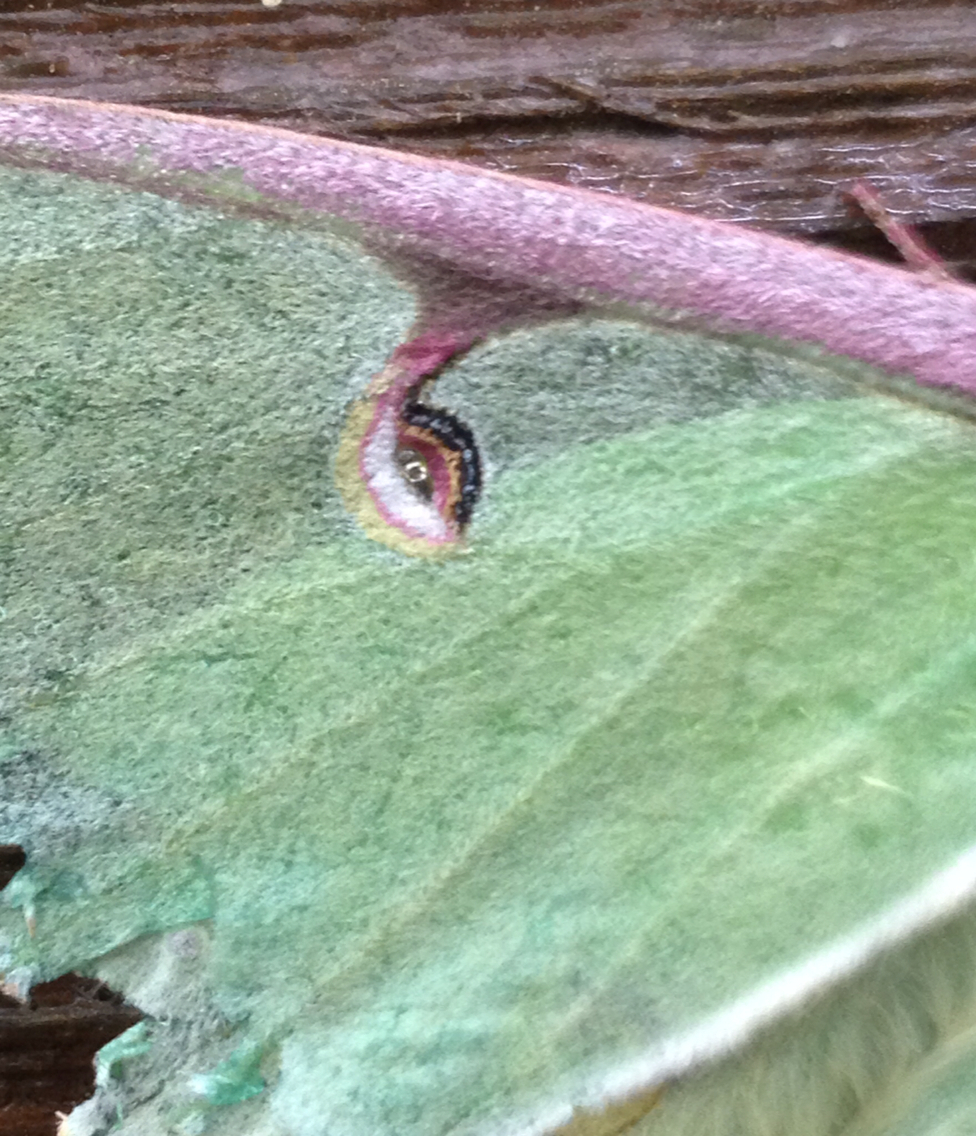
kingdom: Animalia
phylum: Arthropoda
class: Insecta
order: Lepidoptera
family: Saturniidae
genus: Actias
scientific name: Actias luna
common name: Luna moth
